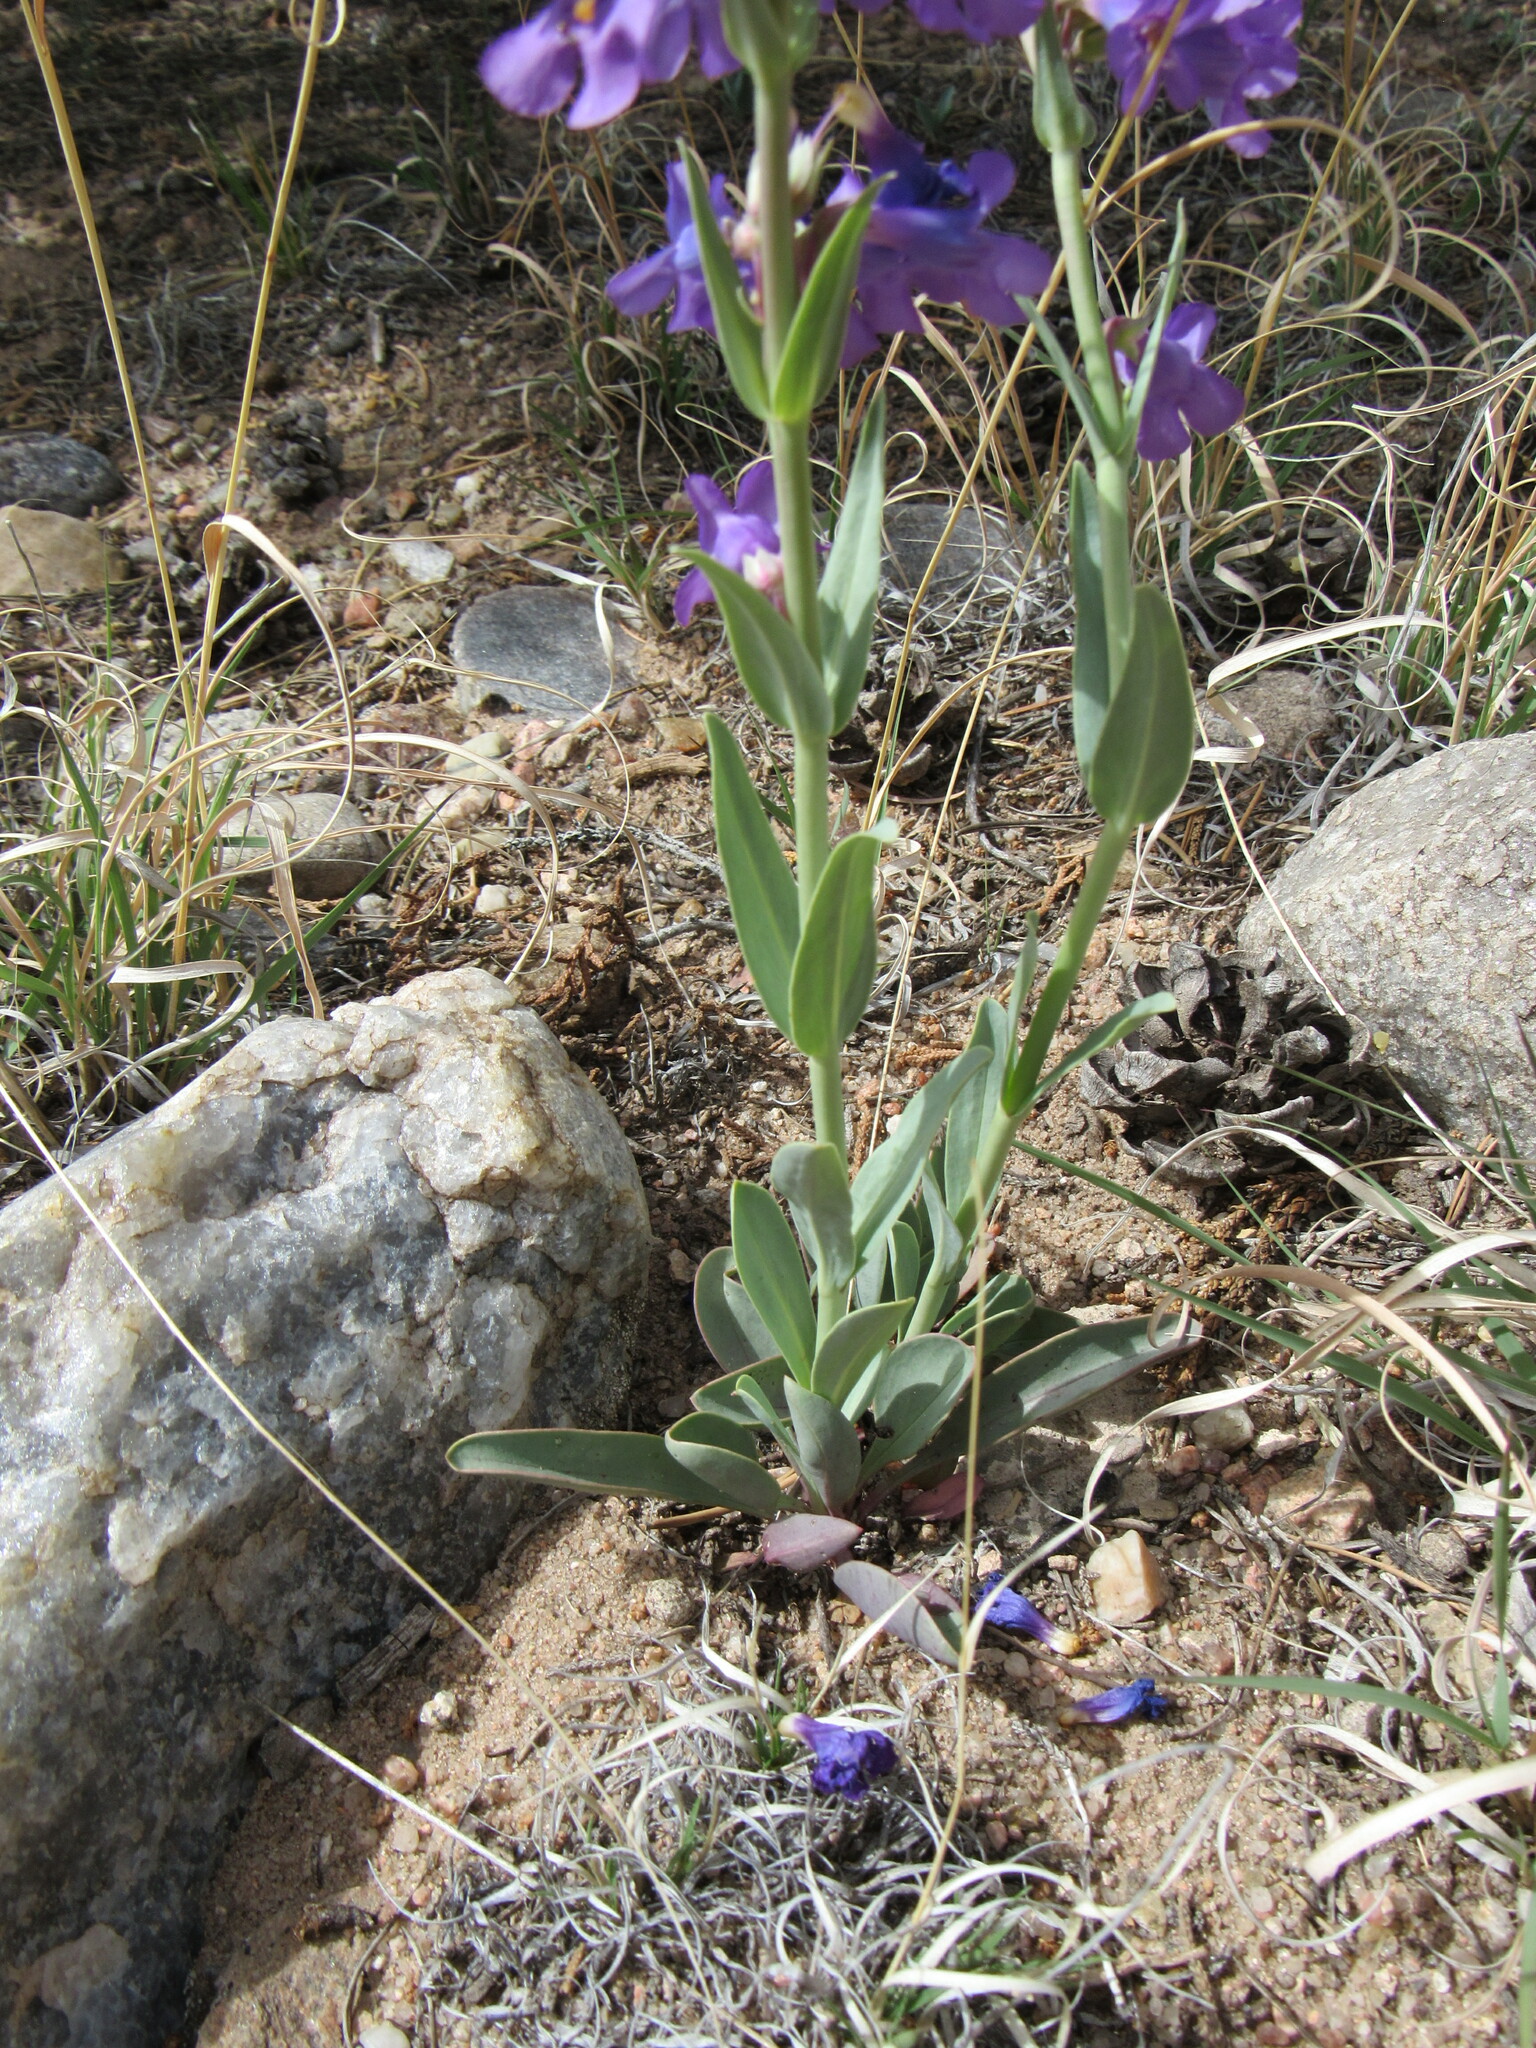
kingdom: Plantae
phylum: Tracheophyta
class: Magnoliopsida
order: Lamiales
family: Plantaginaceae
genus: Penstemon
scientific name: Penstemon secundiflorus
